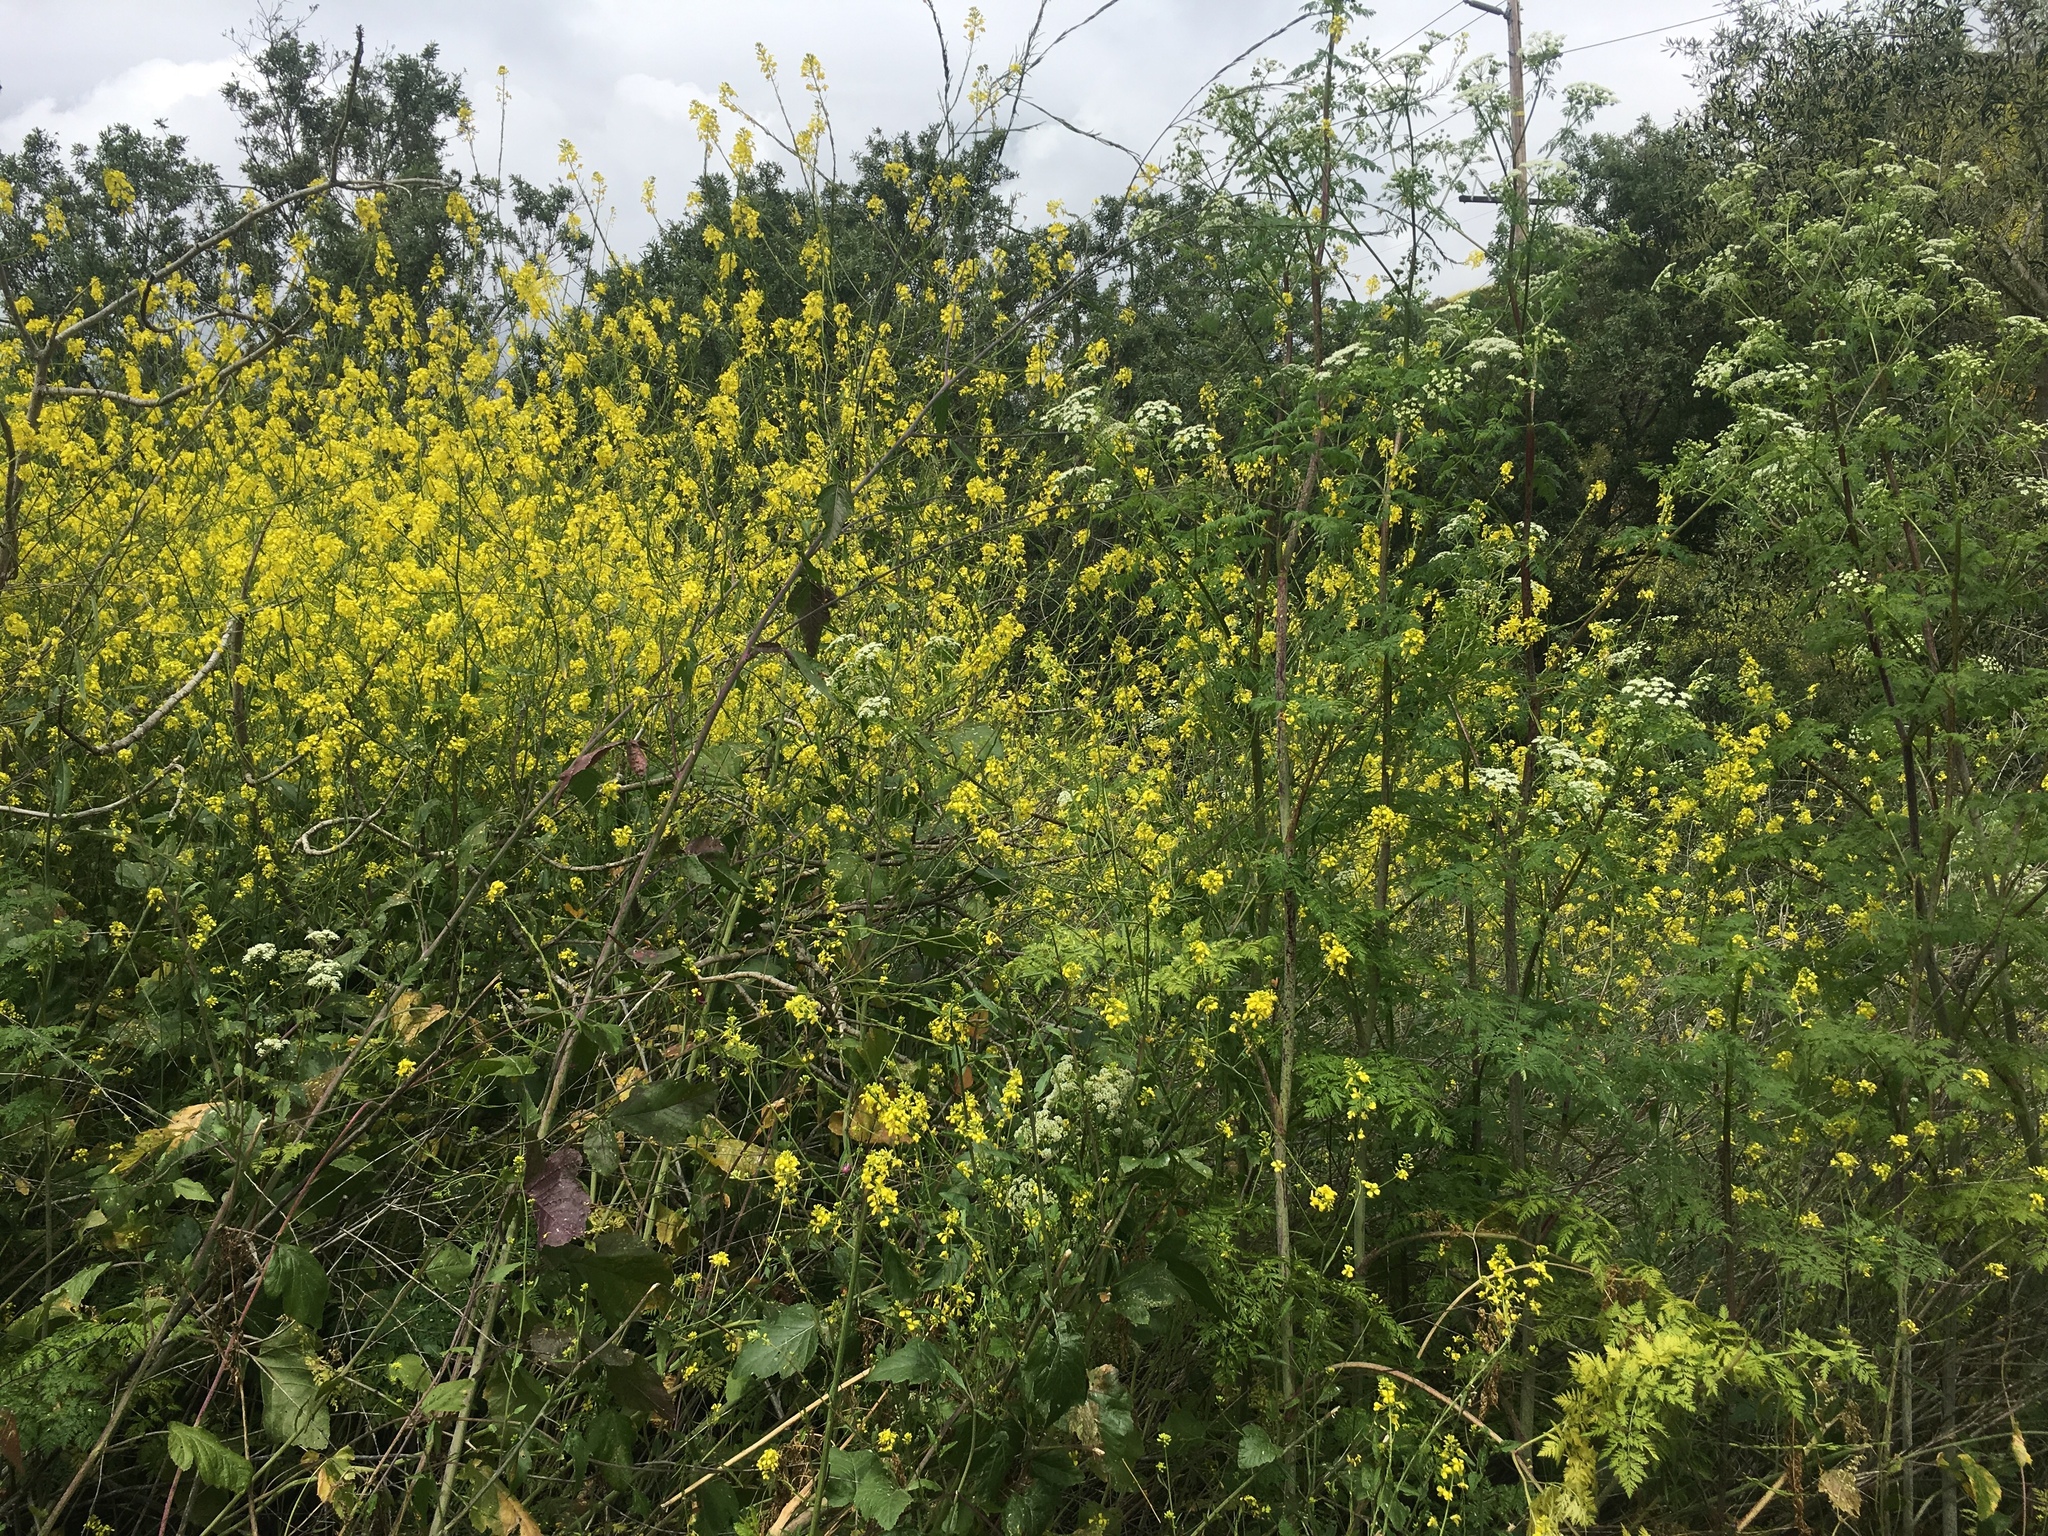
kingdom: Plantae
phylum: Tracheophyta
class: Magnoliopsida
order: Brassicales
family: Brassicaceae
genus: Brassica
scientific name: Brassica nigra
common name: Black mustard
